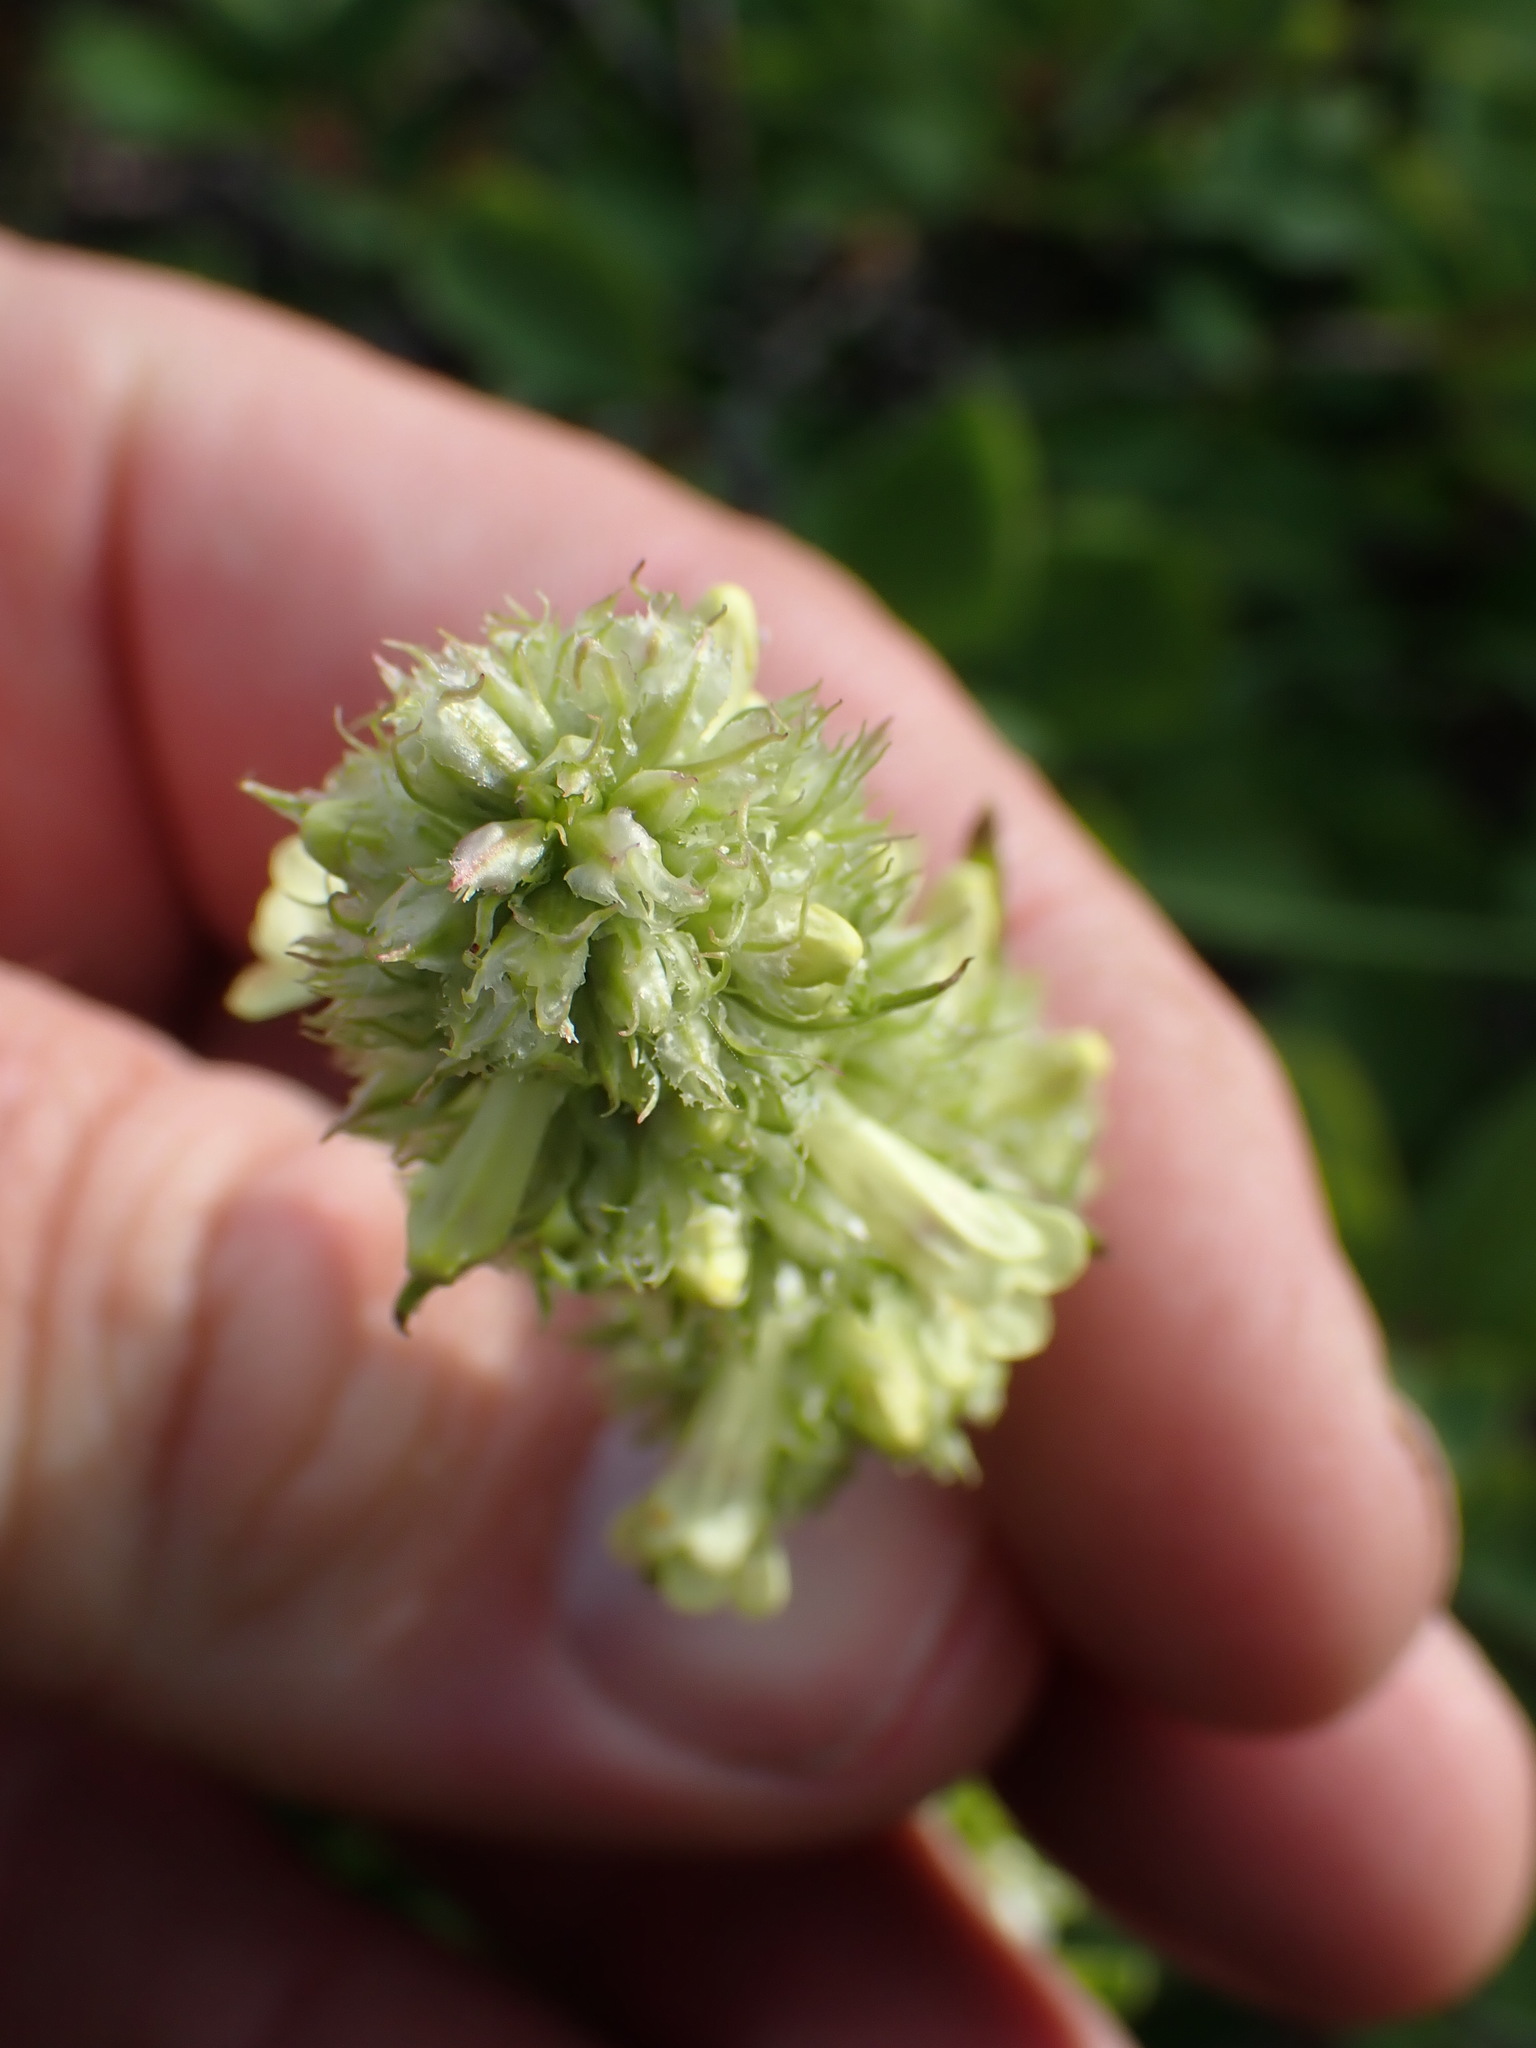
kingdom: Plantae
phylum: Tracheophyta
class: Magnoliopsida
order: Lamiales
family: Plantaginaceae
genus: Penstemon
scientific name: Penstemon confertus
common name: Lesser yellow beardtongue
